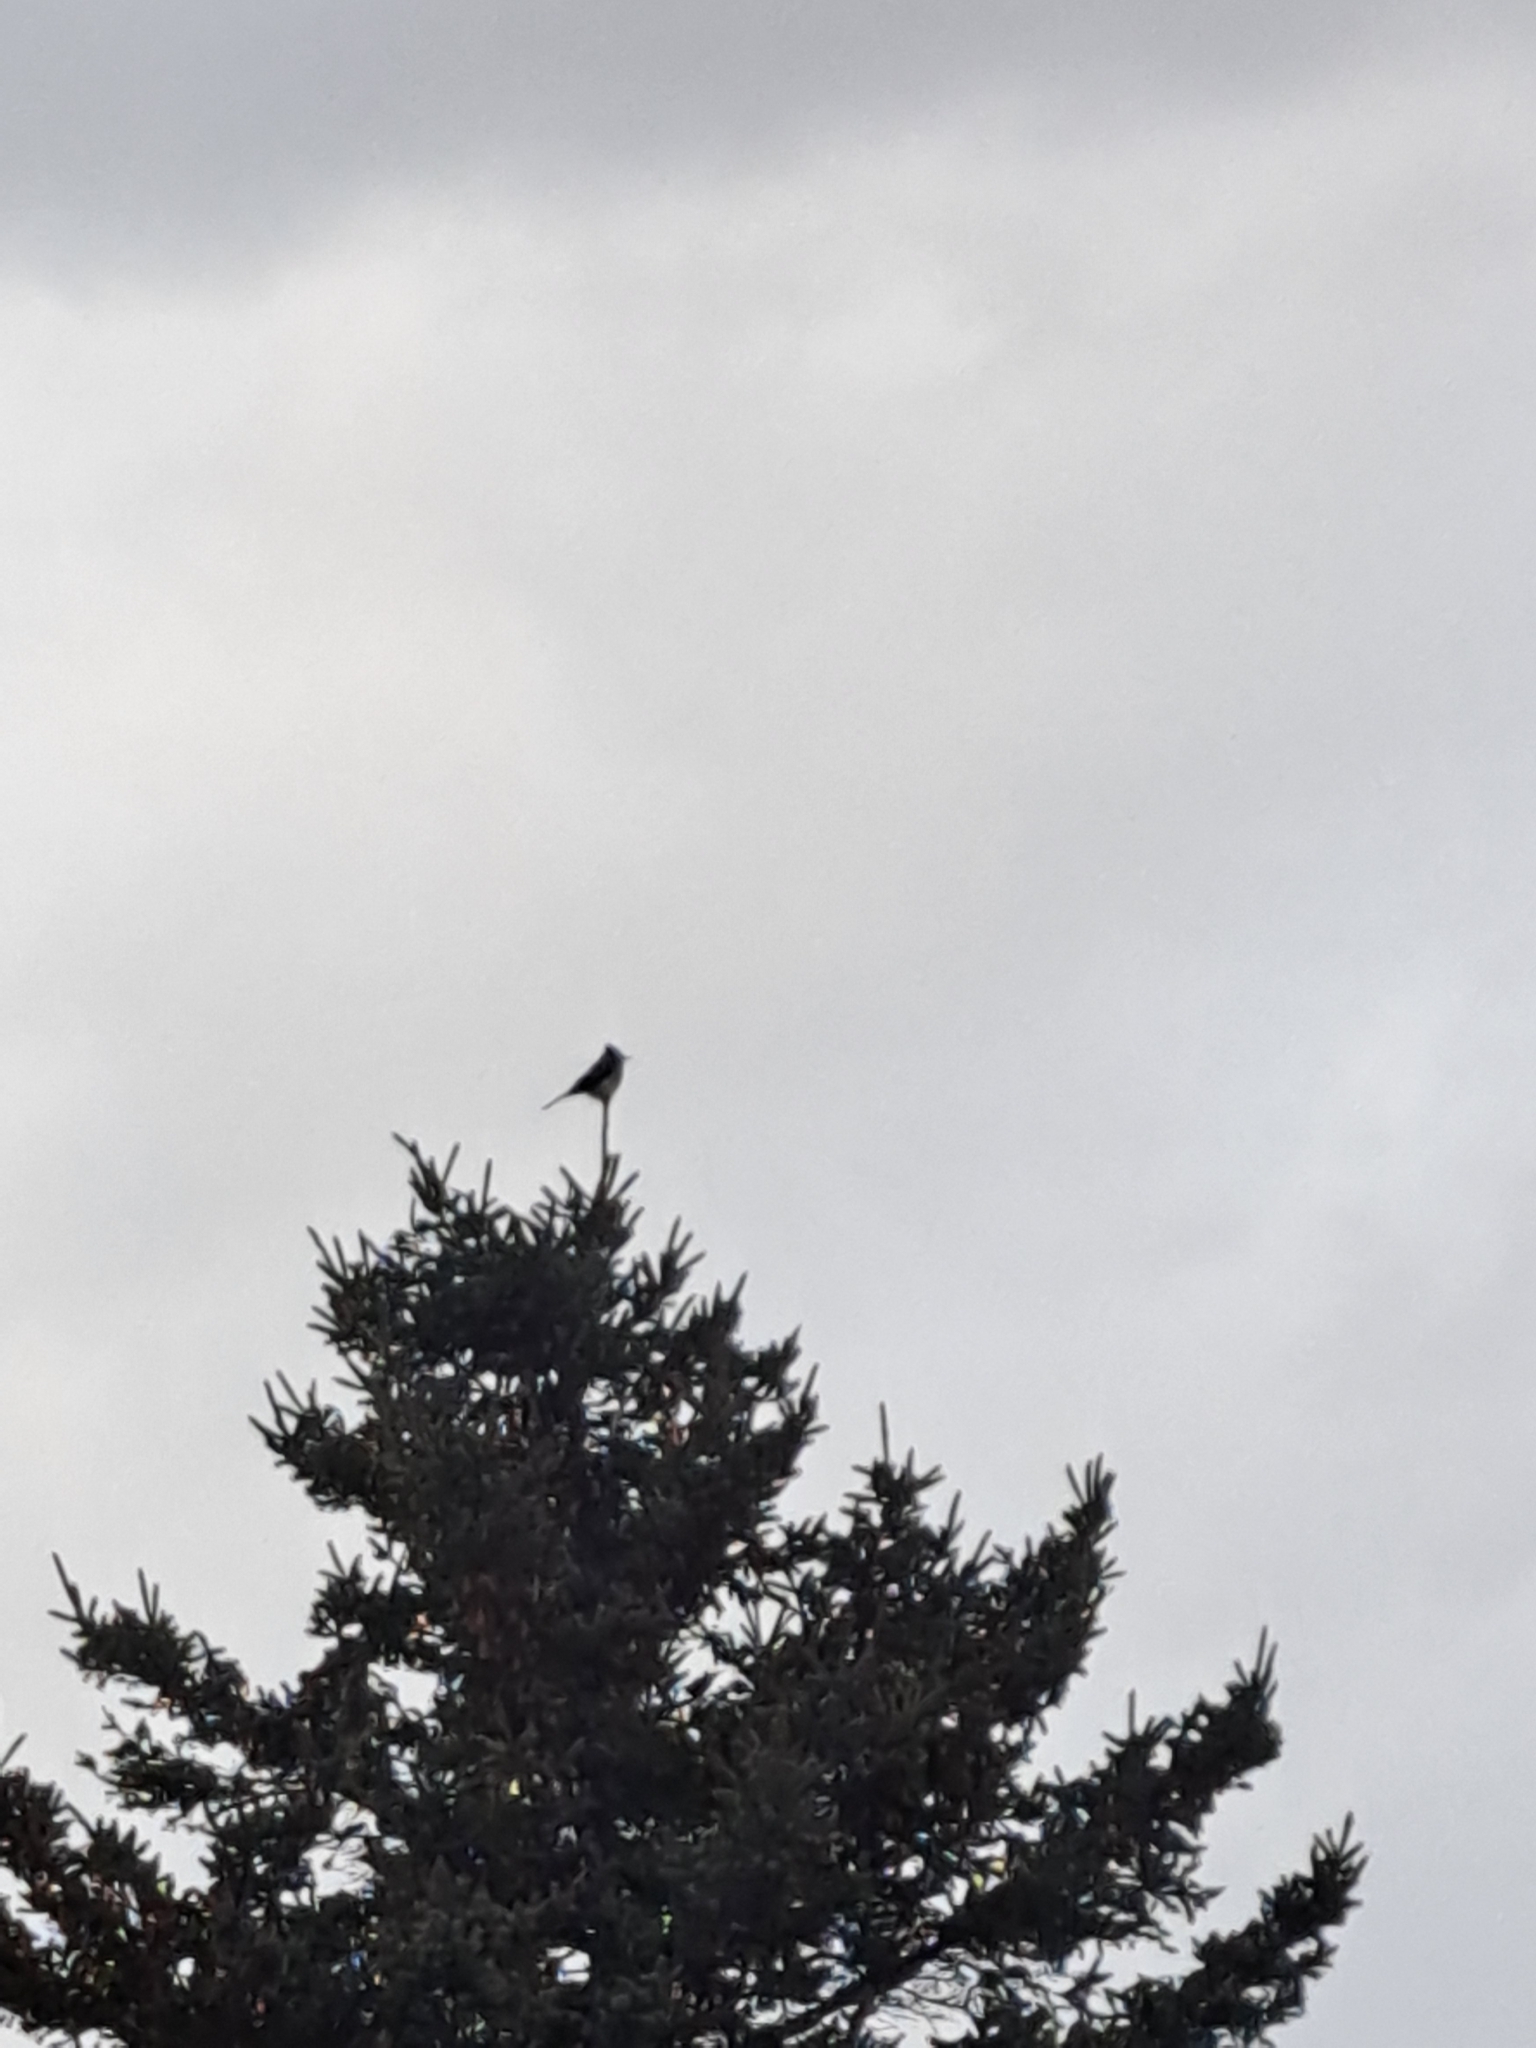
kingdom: Animalia
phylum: Chordata
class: Aves
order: Passeriformes
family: Corvidae
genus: Cyanocitta
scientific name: Cyanocitta cristata
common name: Blue jay
